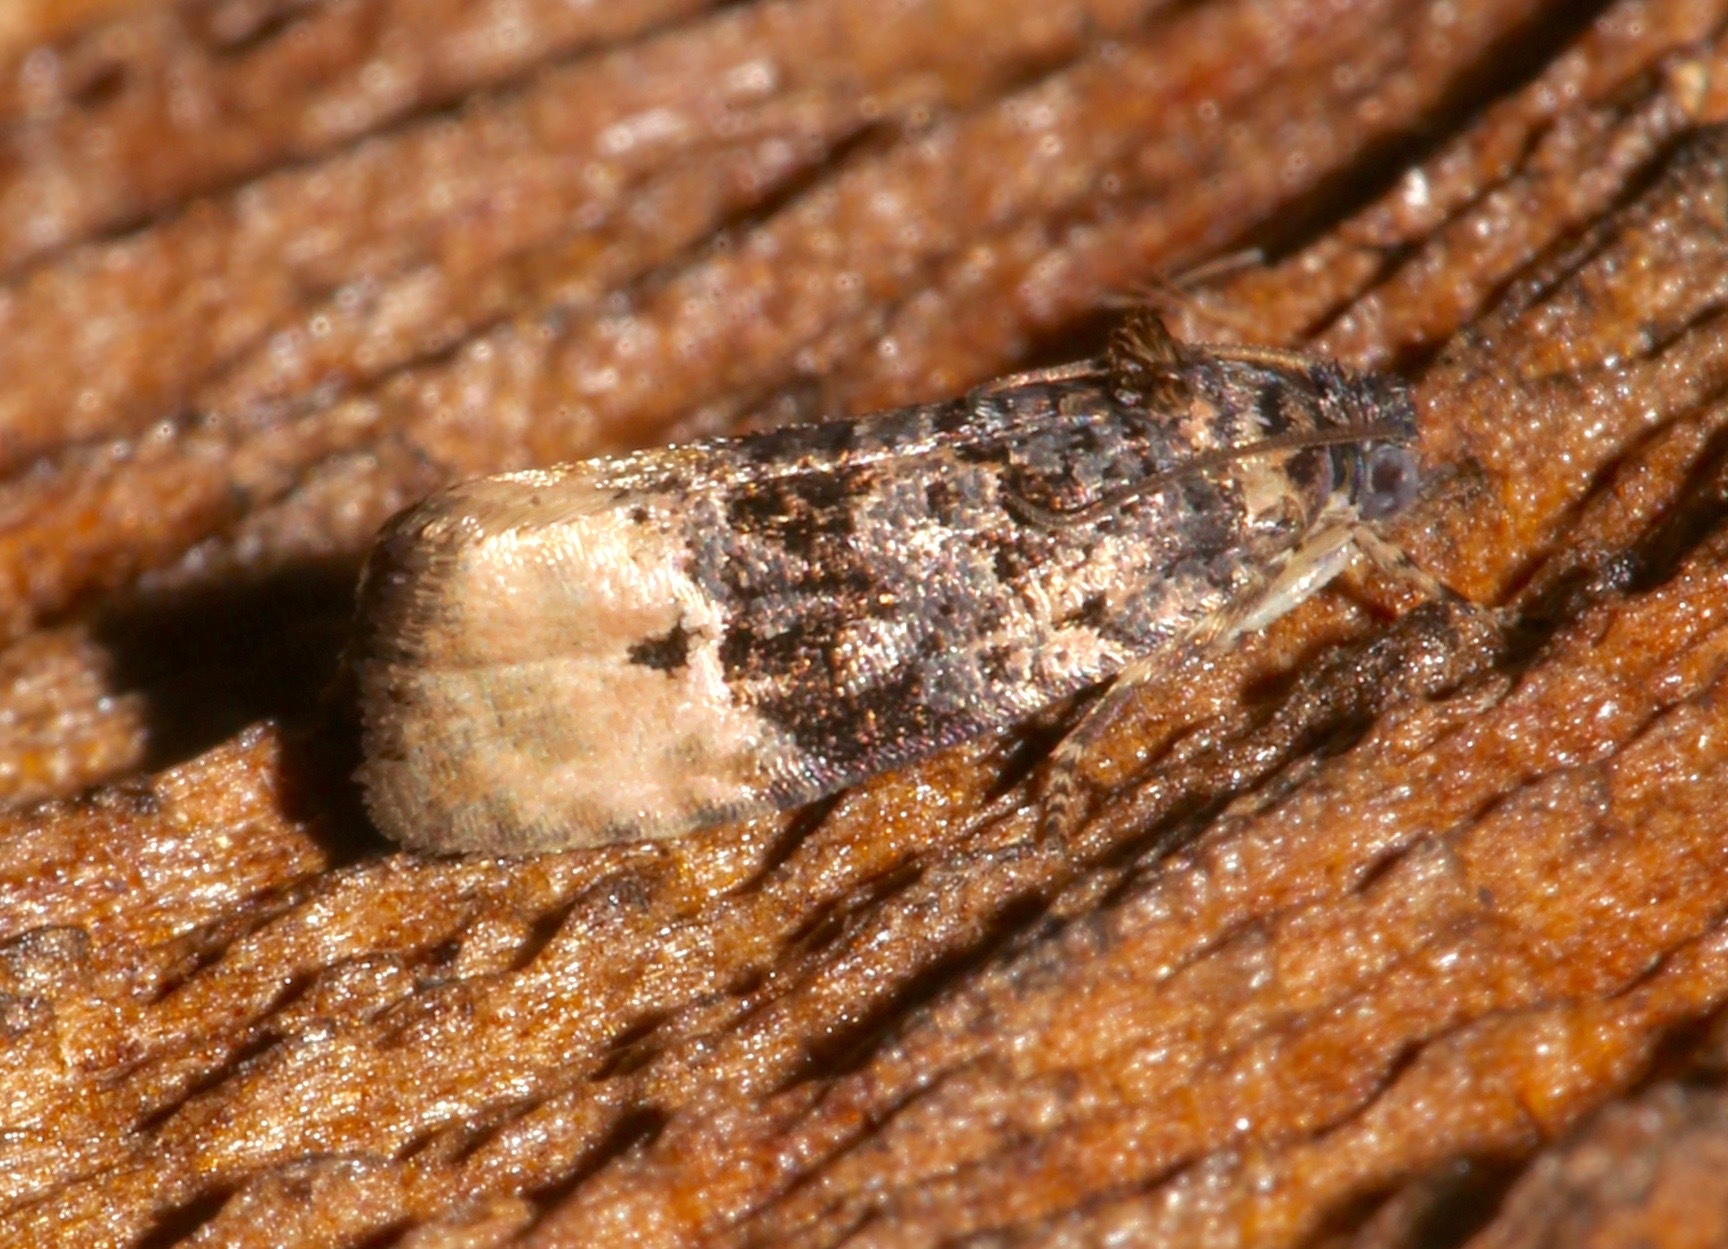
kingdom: Animalia
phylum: Arthropoda
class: Insecta
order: Lepidoptera
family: Tortricidae
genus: Hedya
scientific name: Hedya separatana
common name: Pink-washed leafroller moth
